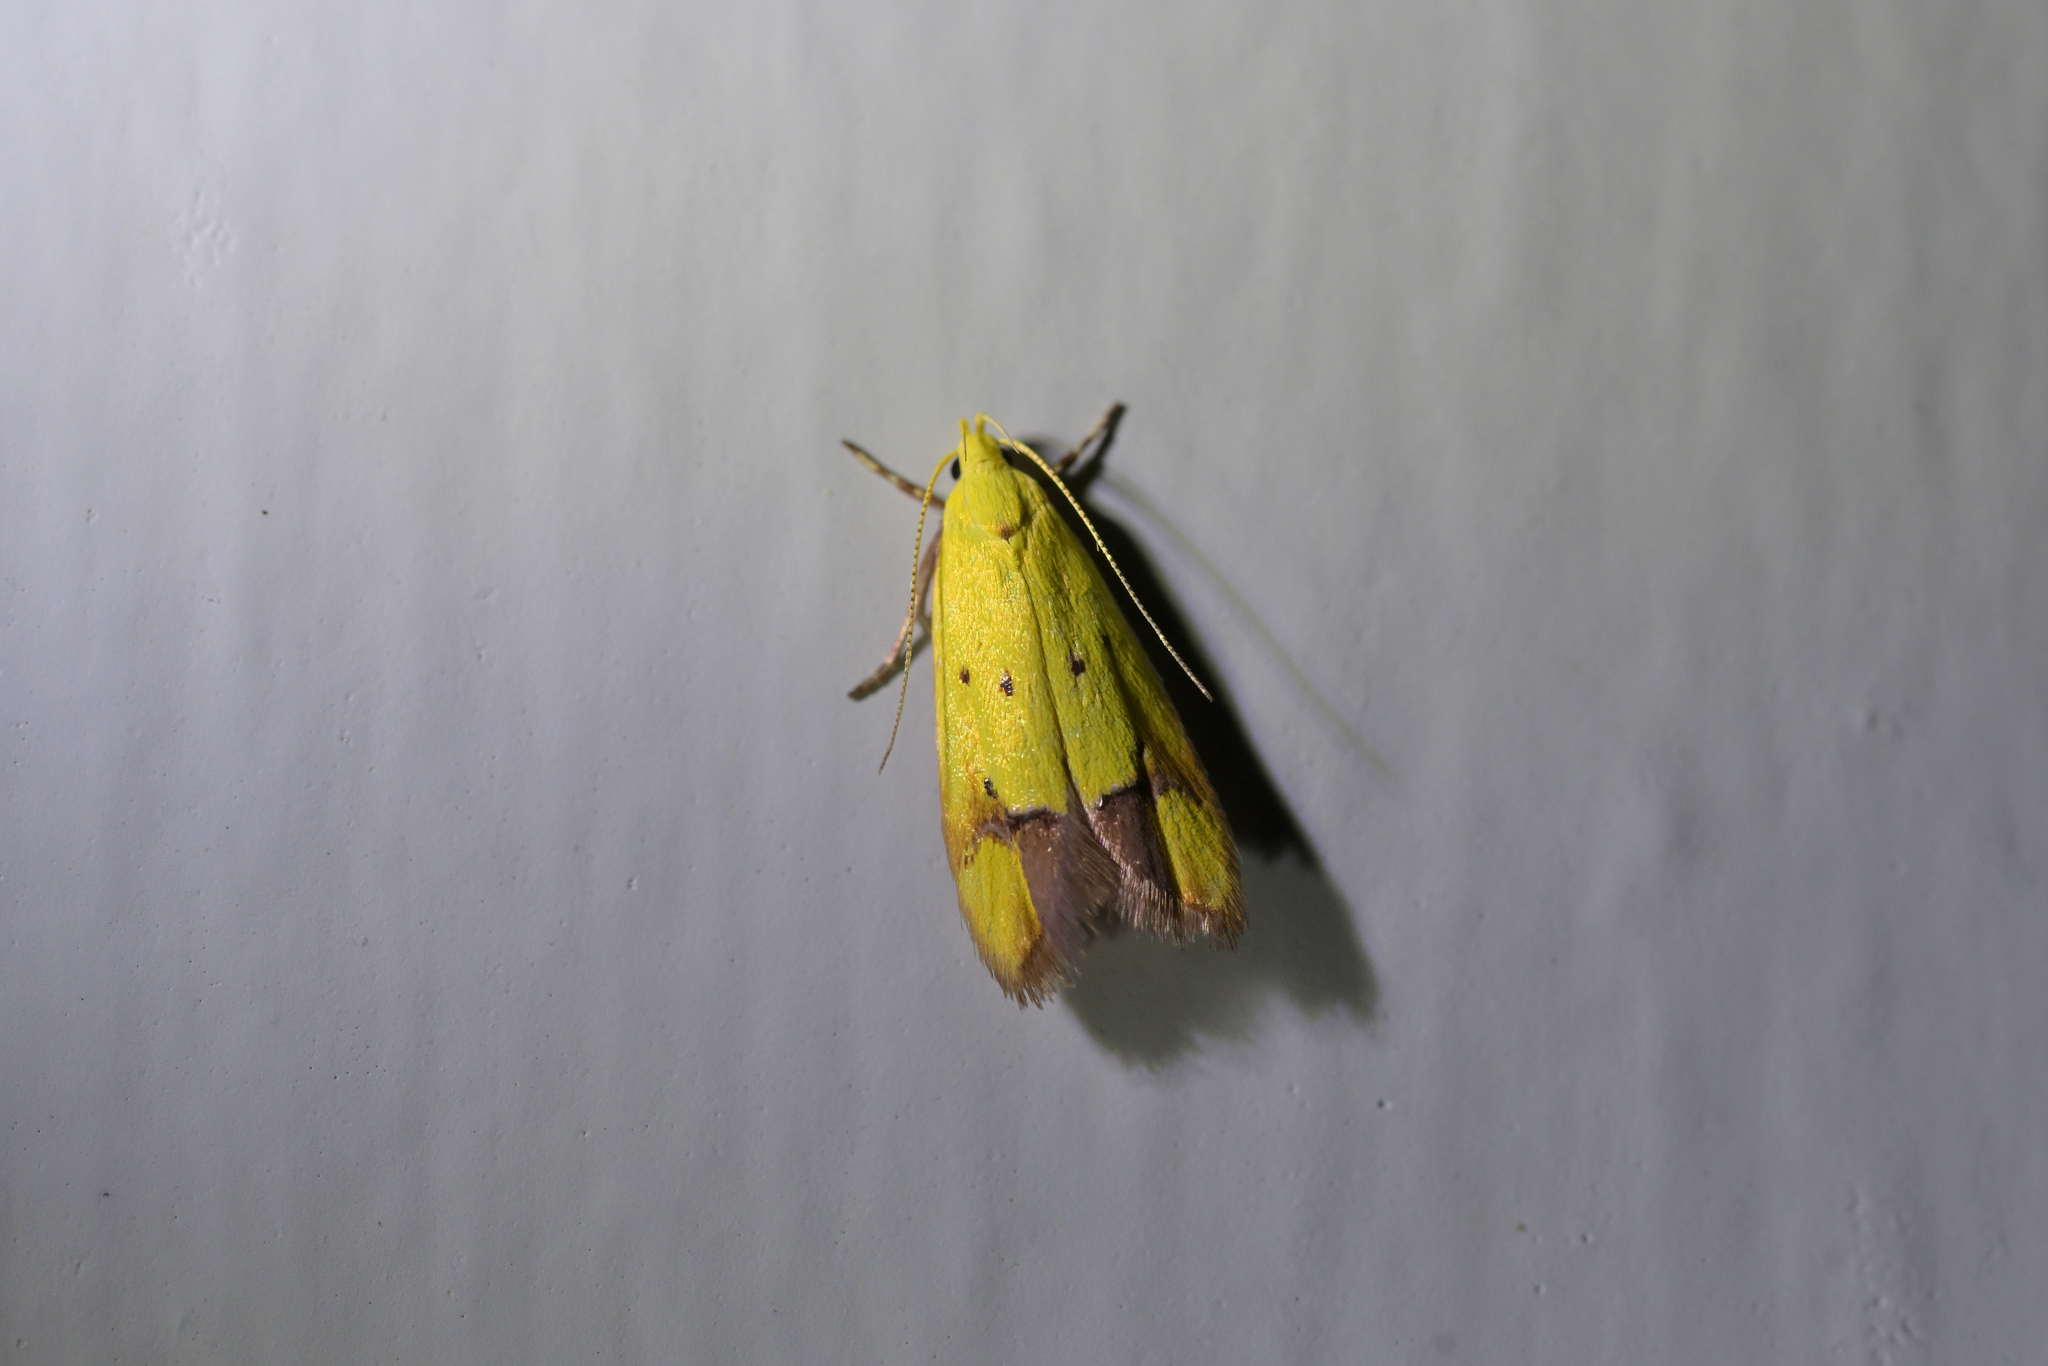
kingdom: Animalia
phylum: Arthropoda
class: Insecta
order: Lepidoptera
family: Oecophoridae
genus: Gymnobathra
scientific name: Gymnobathra flavidella
